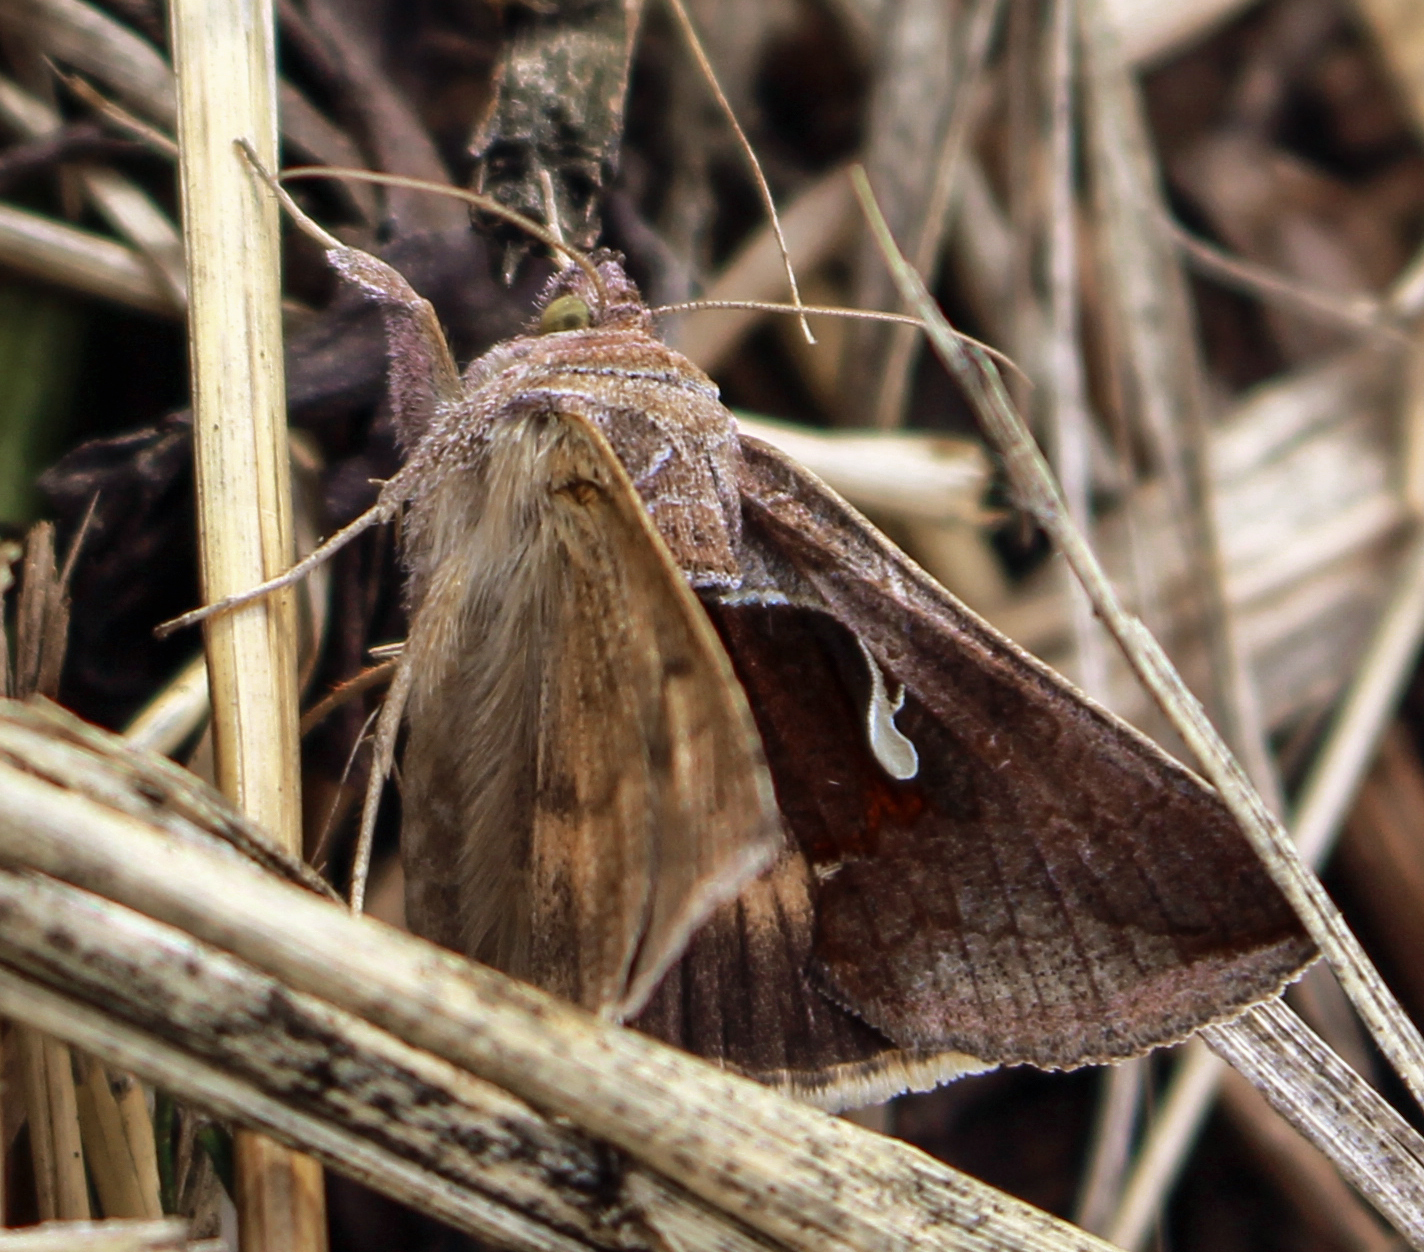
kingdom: Animalia
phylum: Arthropoda
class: Insecta
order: Lepidoptera
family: Noctuidae
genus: Anagrapha
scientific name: Anagrapha falcifera
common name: Celery looper
